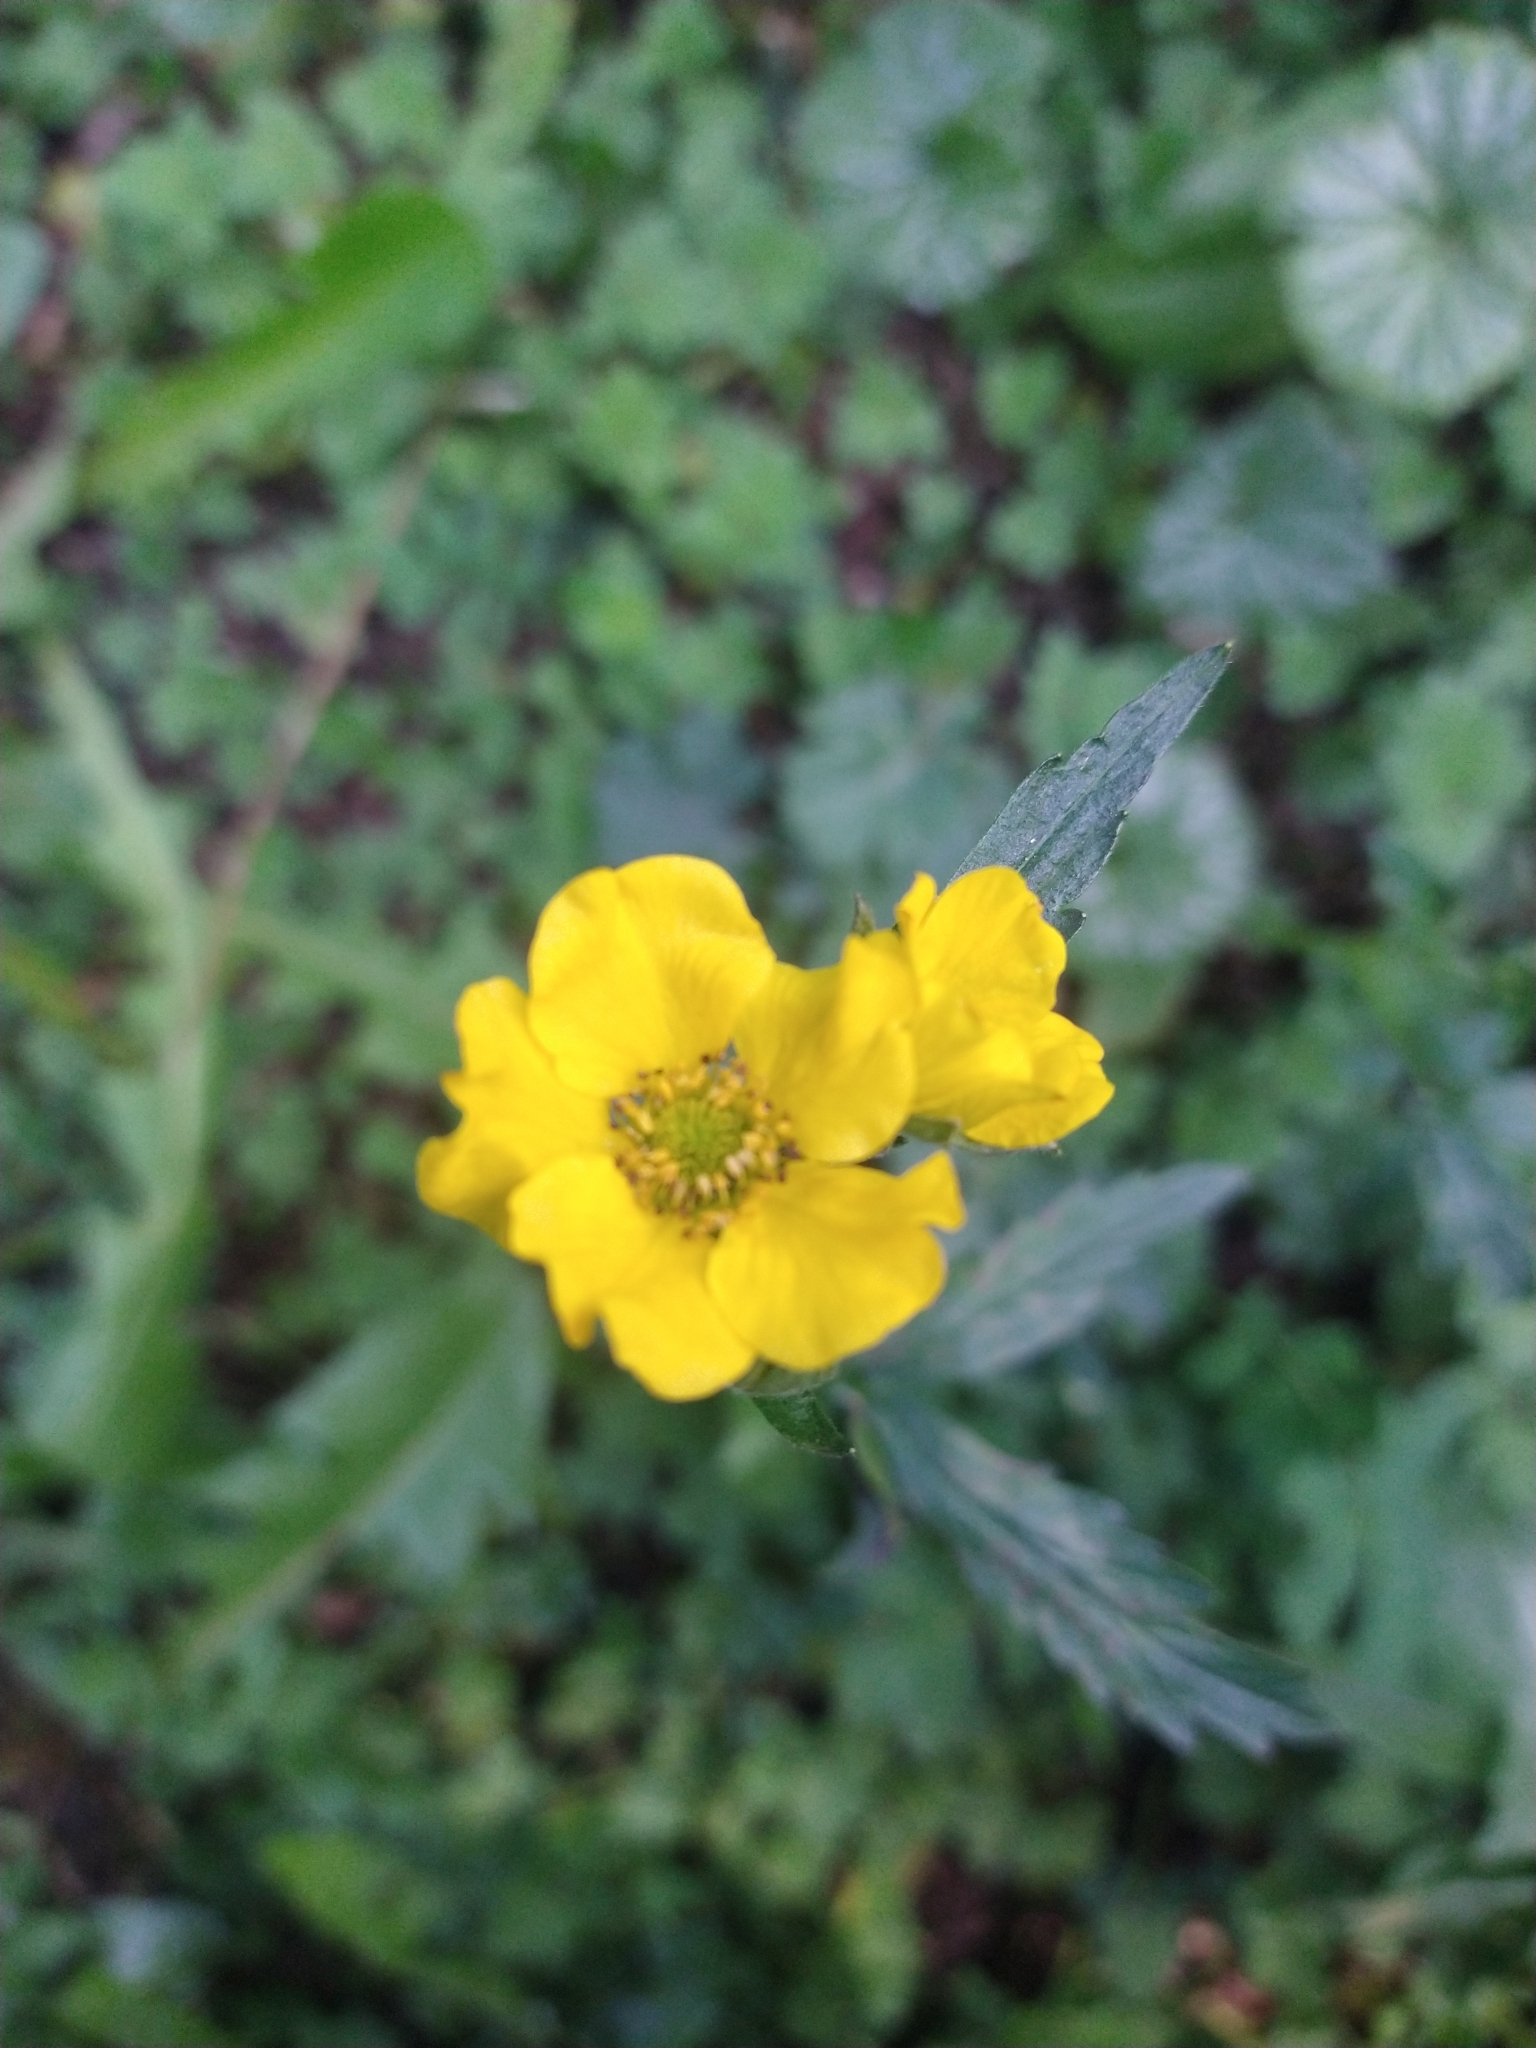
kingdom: Plantae
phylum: Tracheophyta
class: Magnoliopsida
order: Rosales
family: Rosaceae
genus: Geum
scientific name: Geum magellanicum
